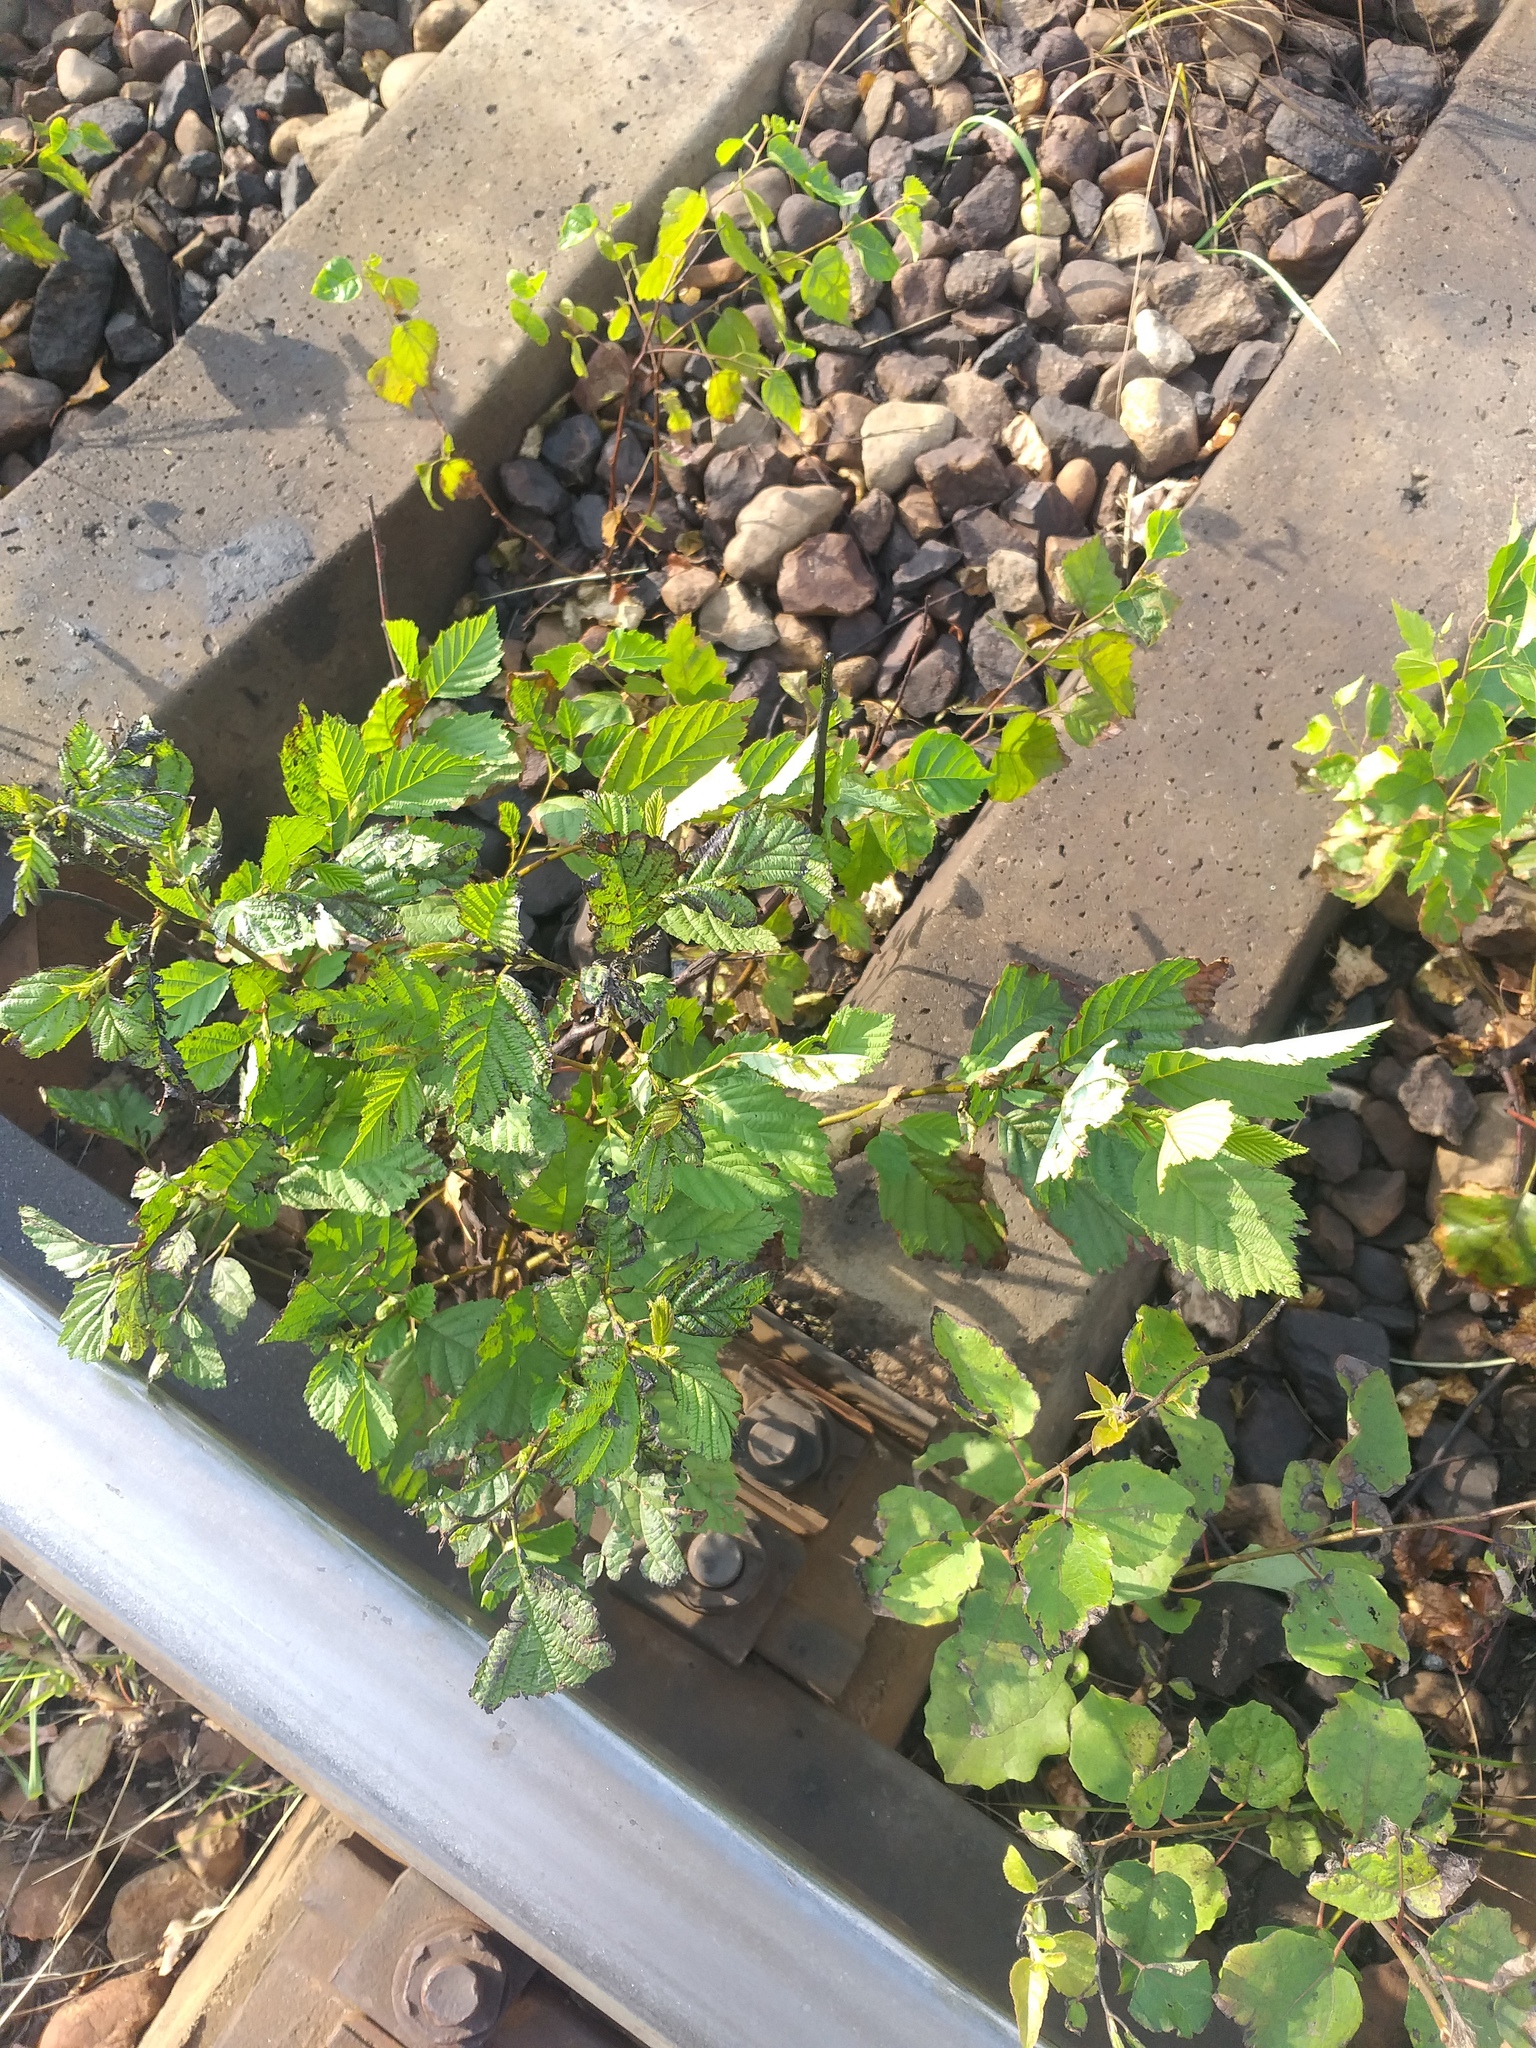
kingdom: Plantae
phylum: Tracheophyta
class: Magnoliopsida
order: Fagales
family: Betulaceae
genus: Alnus
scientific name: Alnus incana
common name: Grey alder
